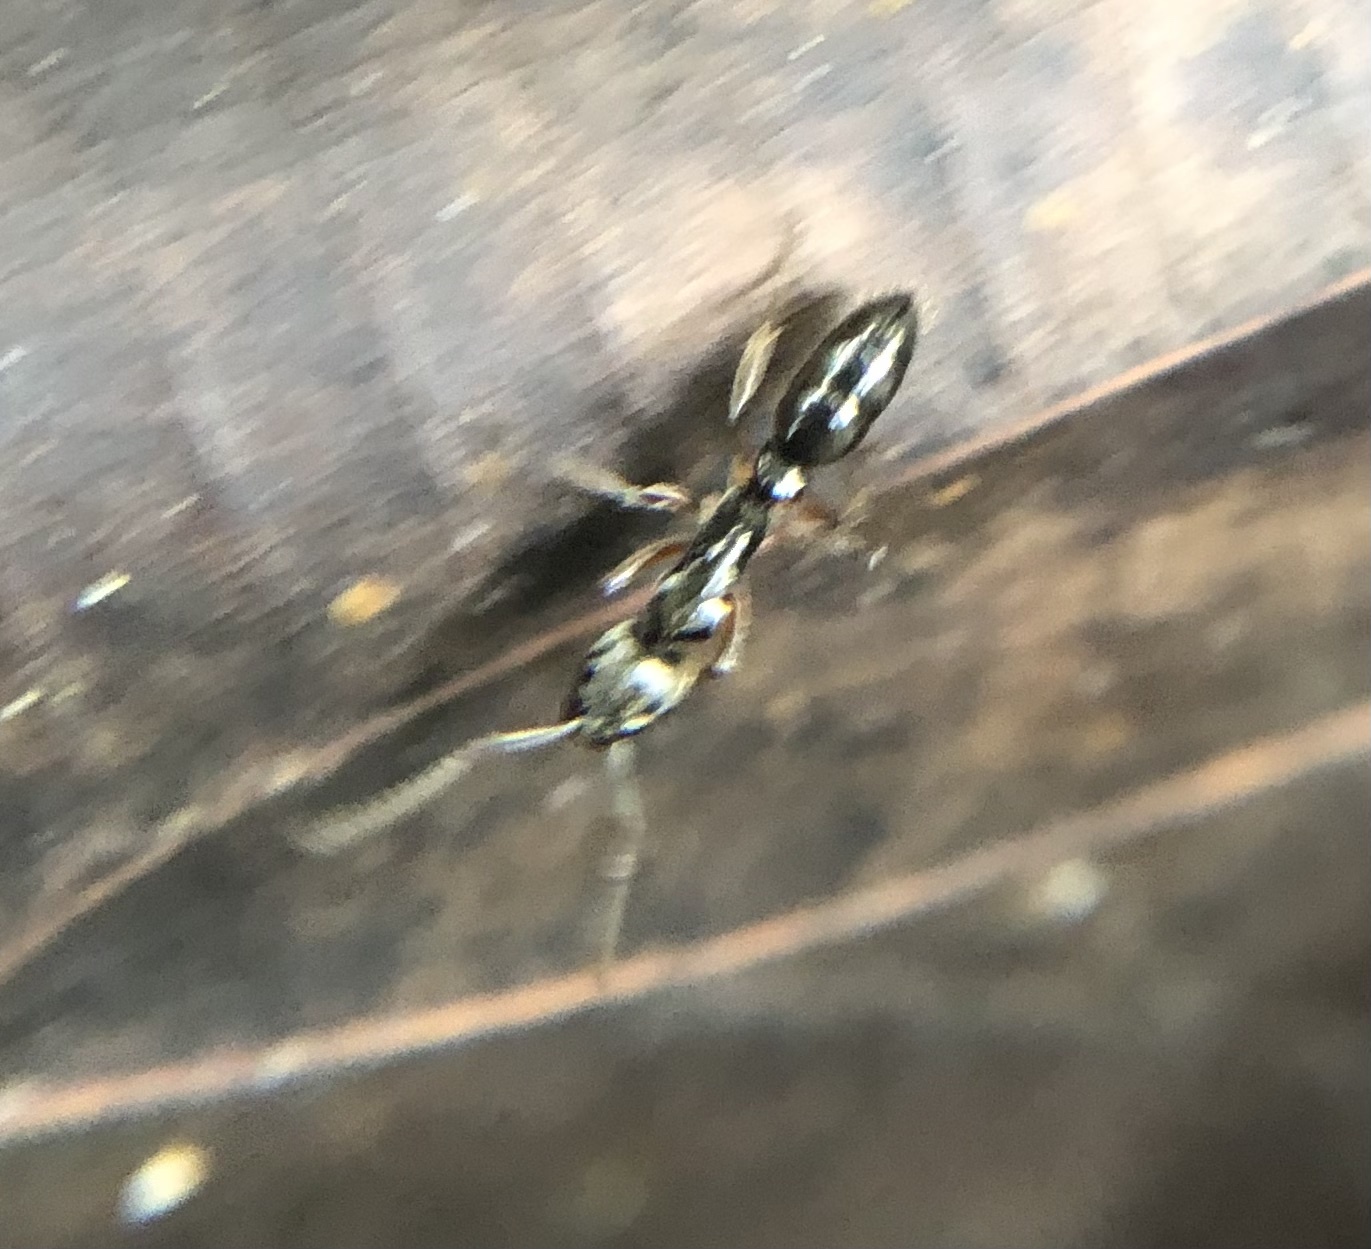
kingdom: Animalia
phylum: Arthropoda
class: Insecta
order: Hymenoptera
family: Formicidae
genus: Neoponera
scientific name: Neoponera
